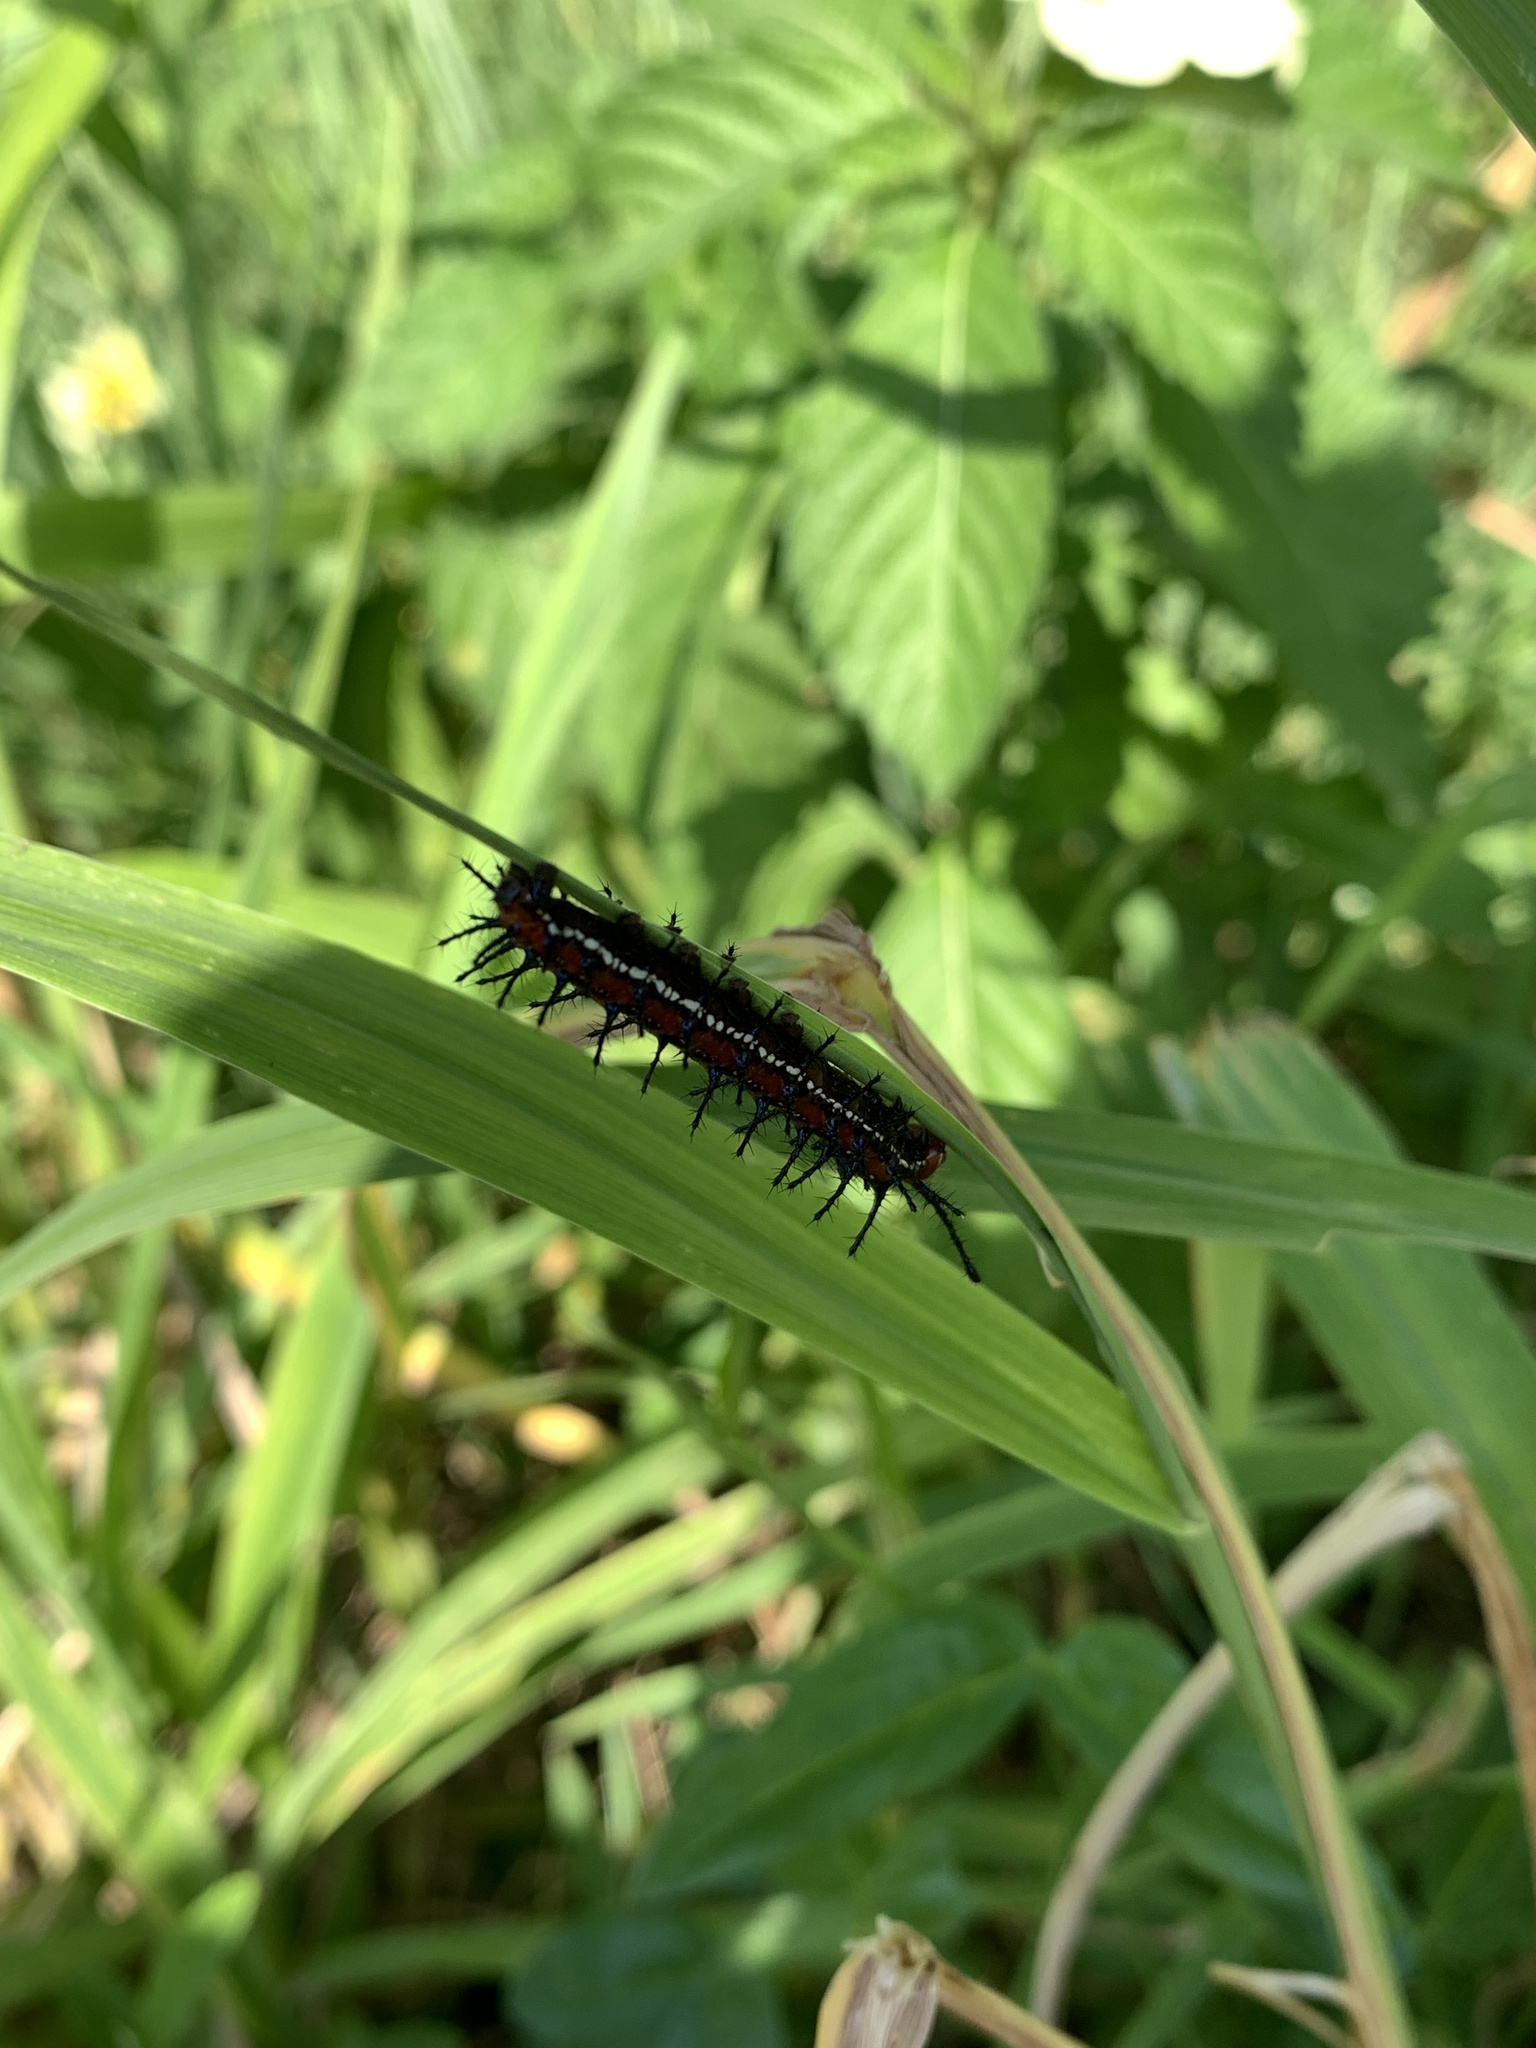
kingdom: Animalia
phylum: Arthropoda
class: Insecta
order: Lepidoptera
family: Nymphalidae
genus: Euptoieta
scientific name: Euptoieta hegesia
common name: Mexican fritillary
